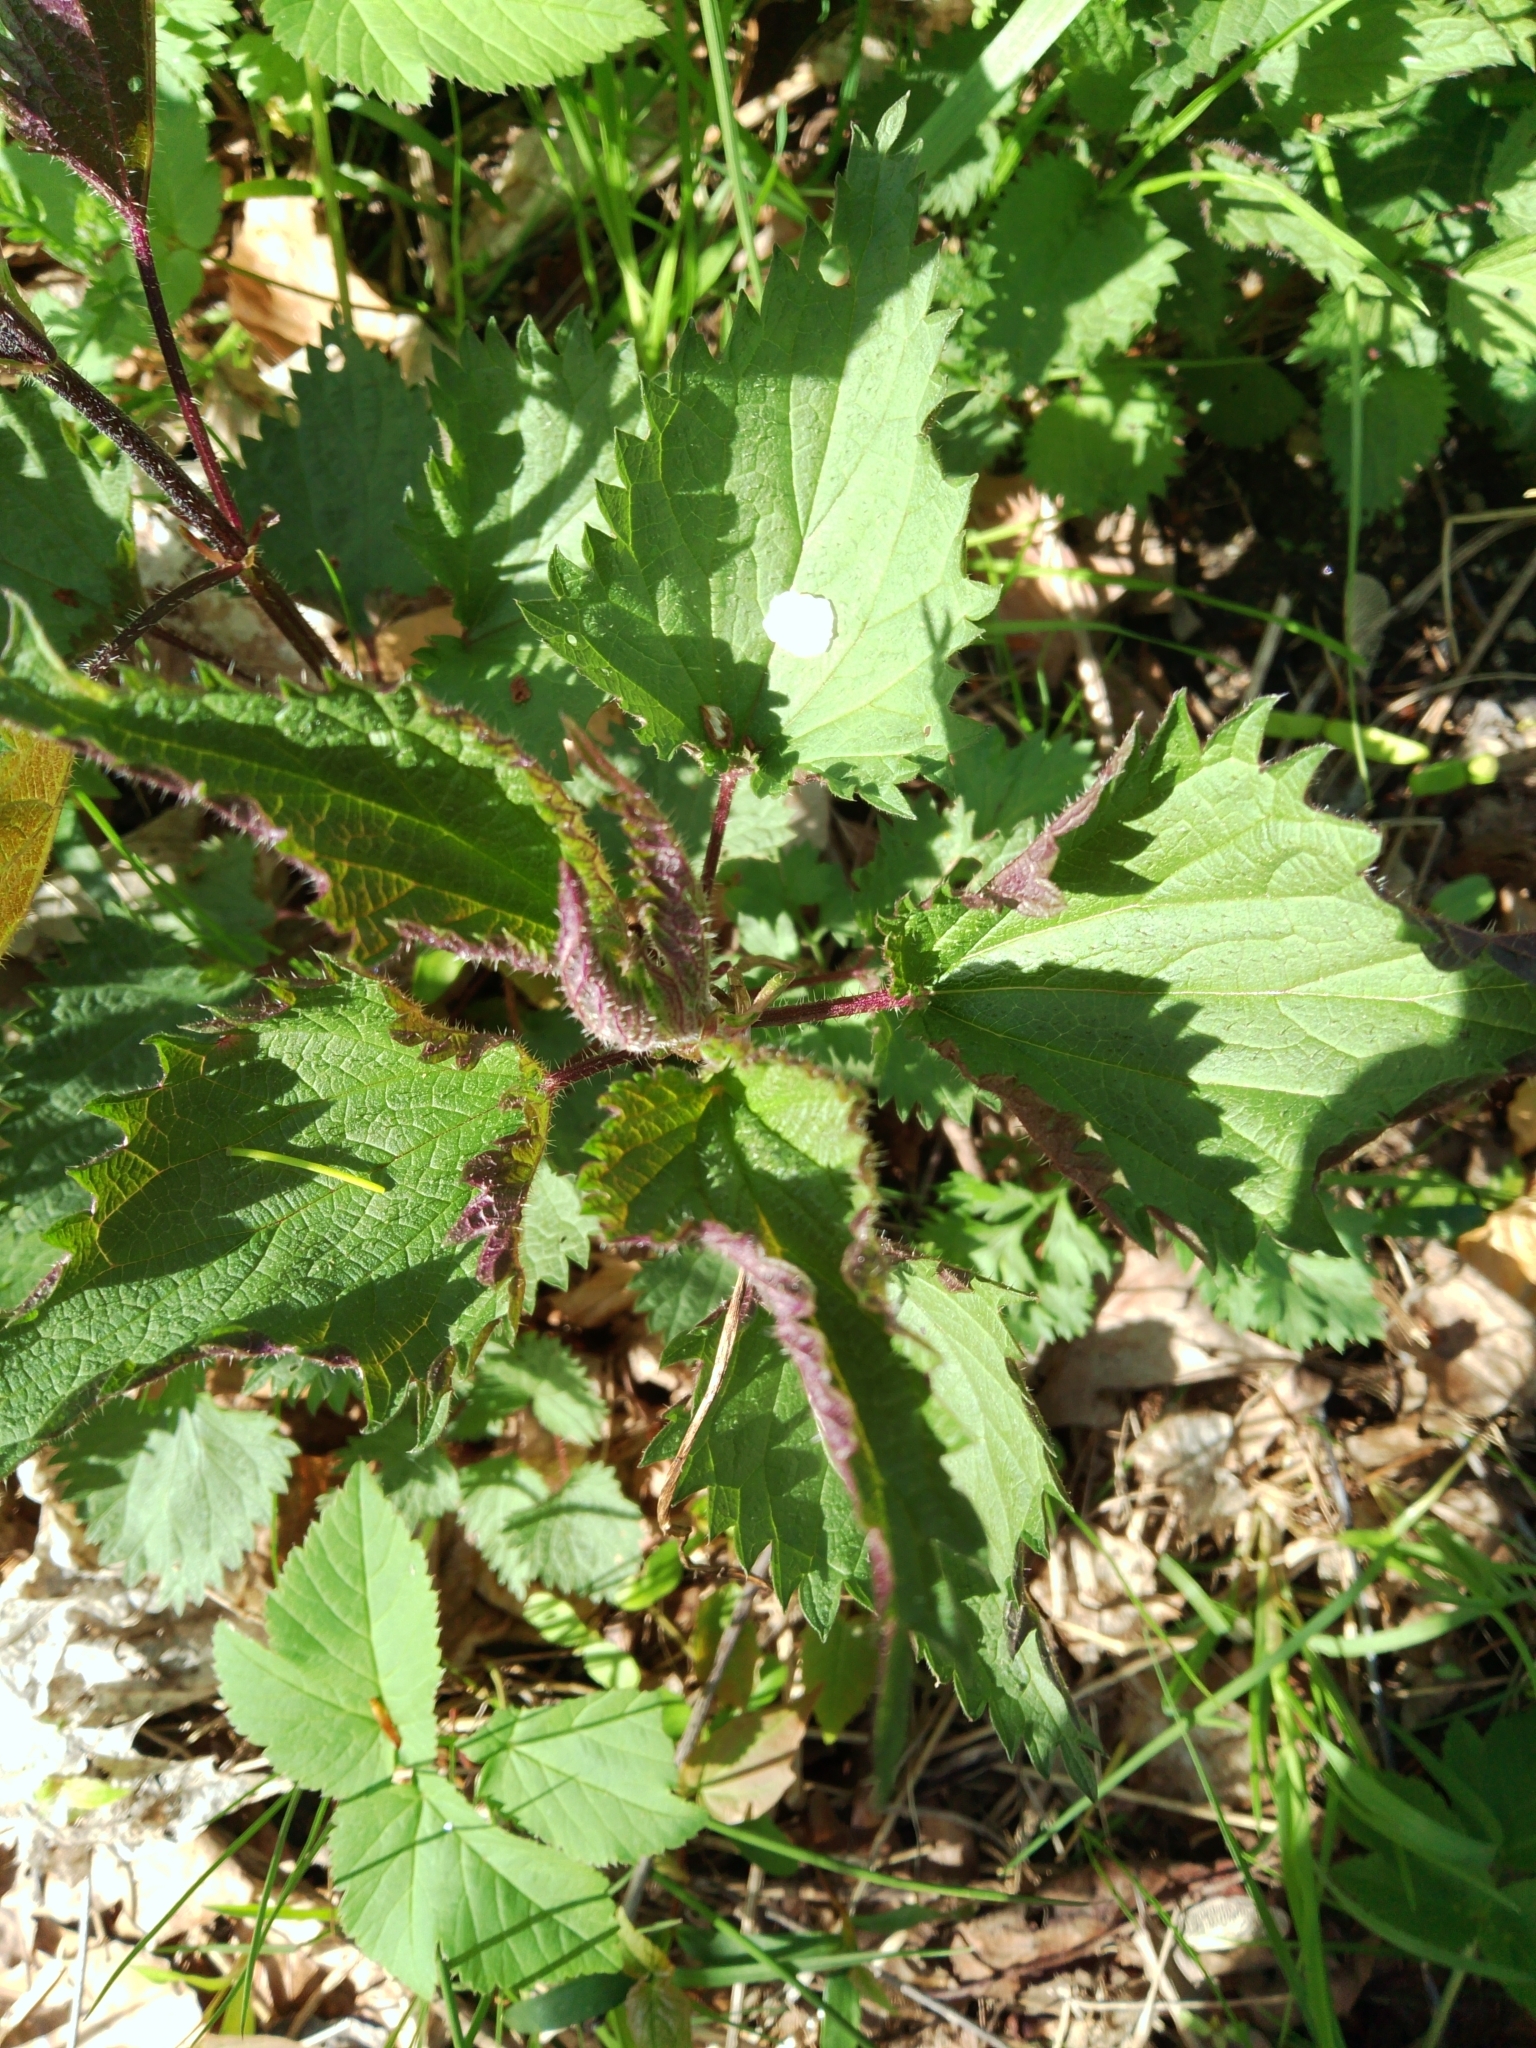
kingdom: Plantae
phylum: Tracheophyta
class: Magnoliopsida
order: Rosales
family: Urticaceae
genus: Urtica
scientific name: Urtica dioica
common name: Common nettle
